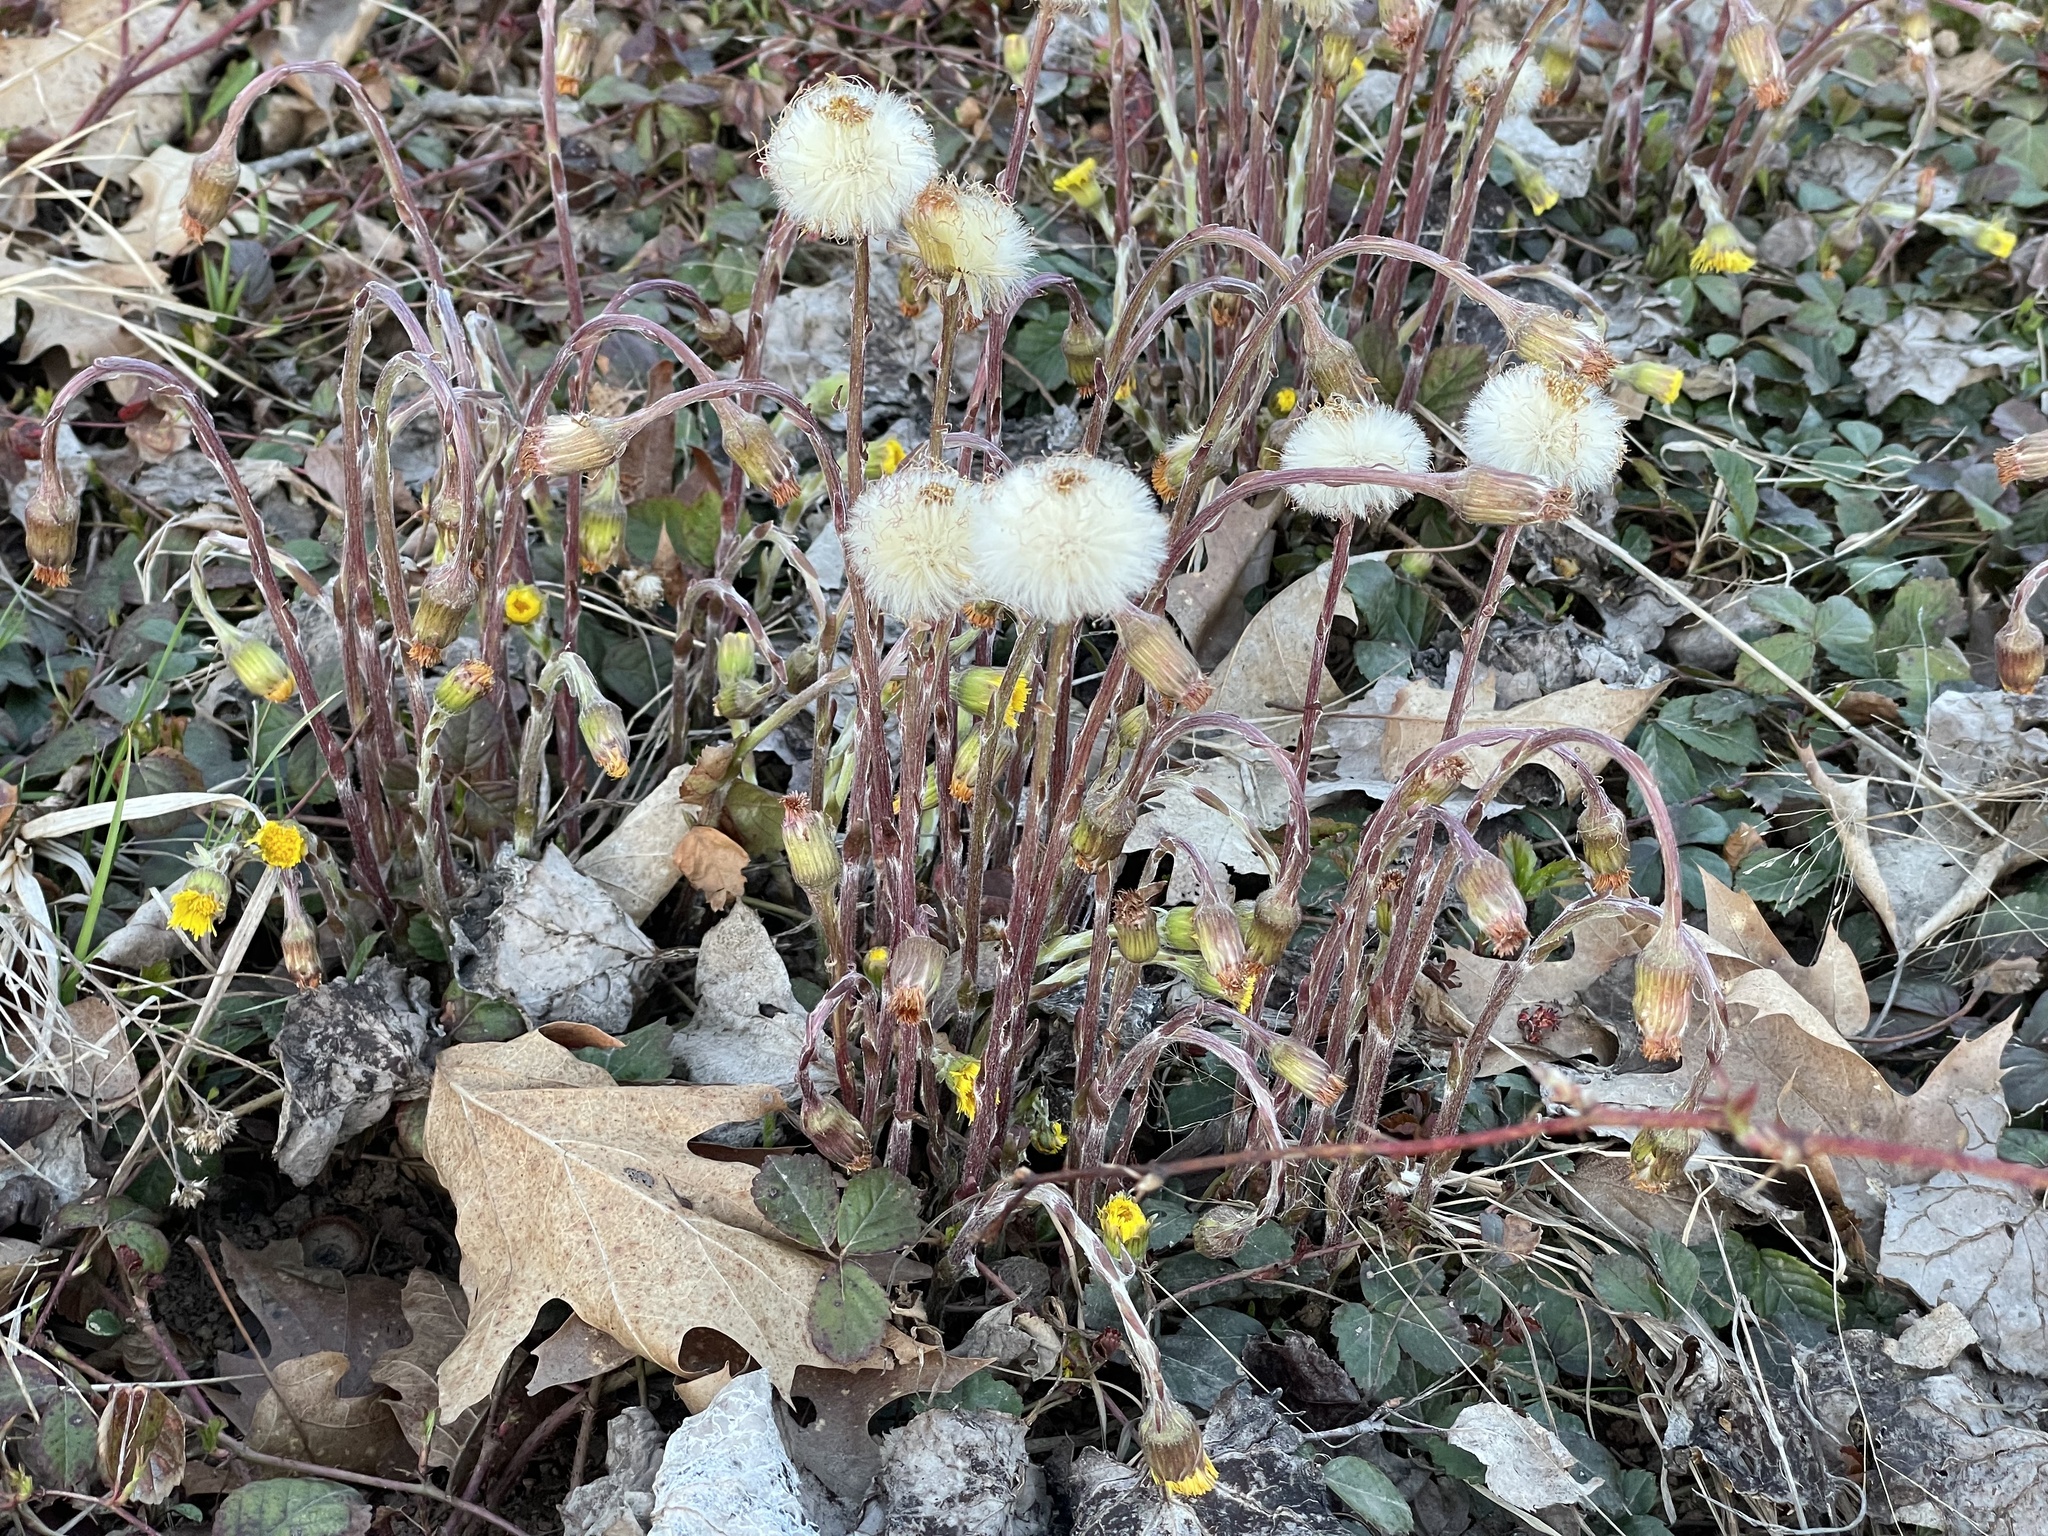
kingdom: Plantae
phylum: Tracheophyta
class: Magnoliopsida
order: Asterales
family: Asteraceae
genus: Tussilago
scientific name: Tussilago farfara
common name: Coltsfoot
